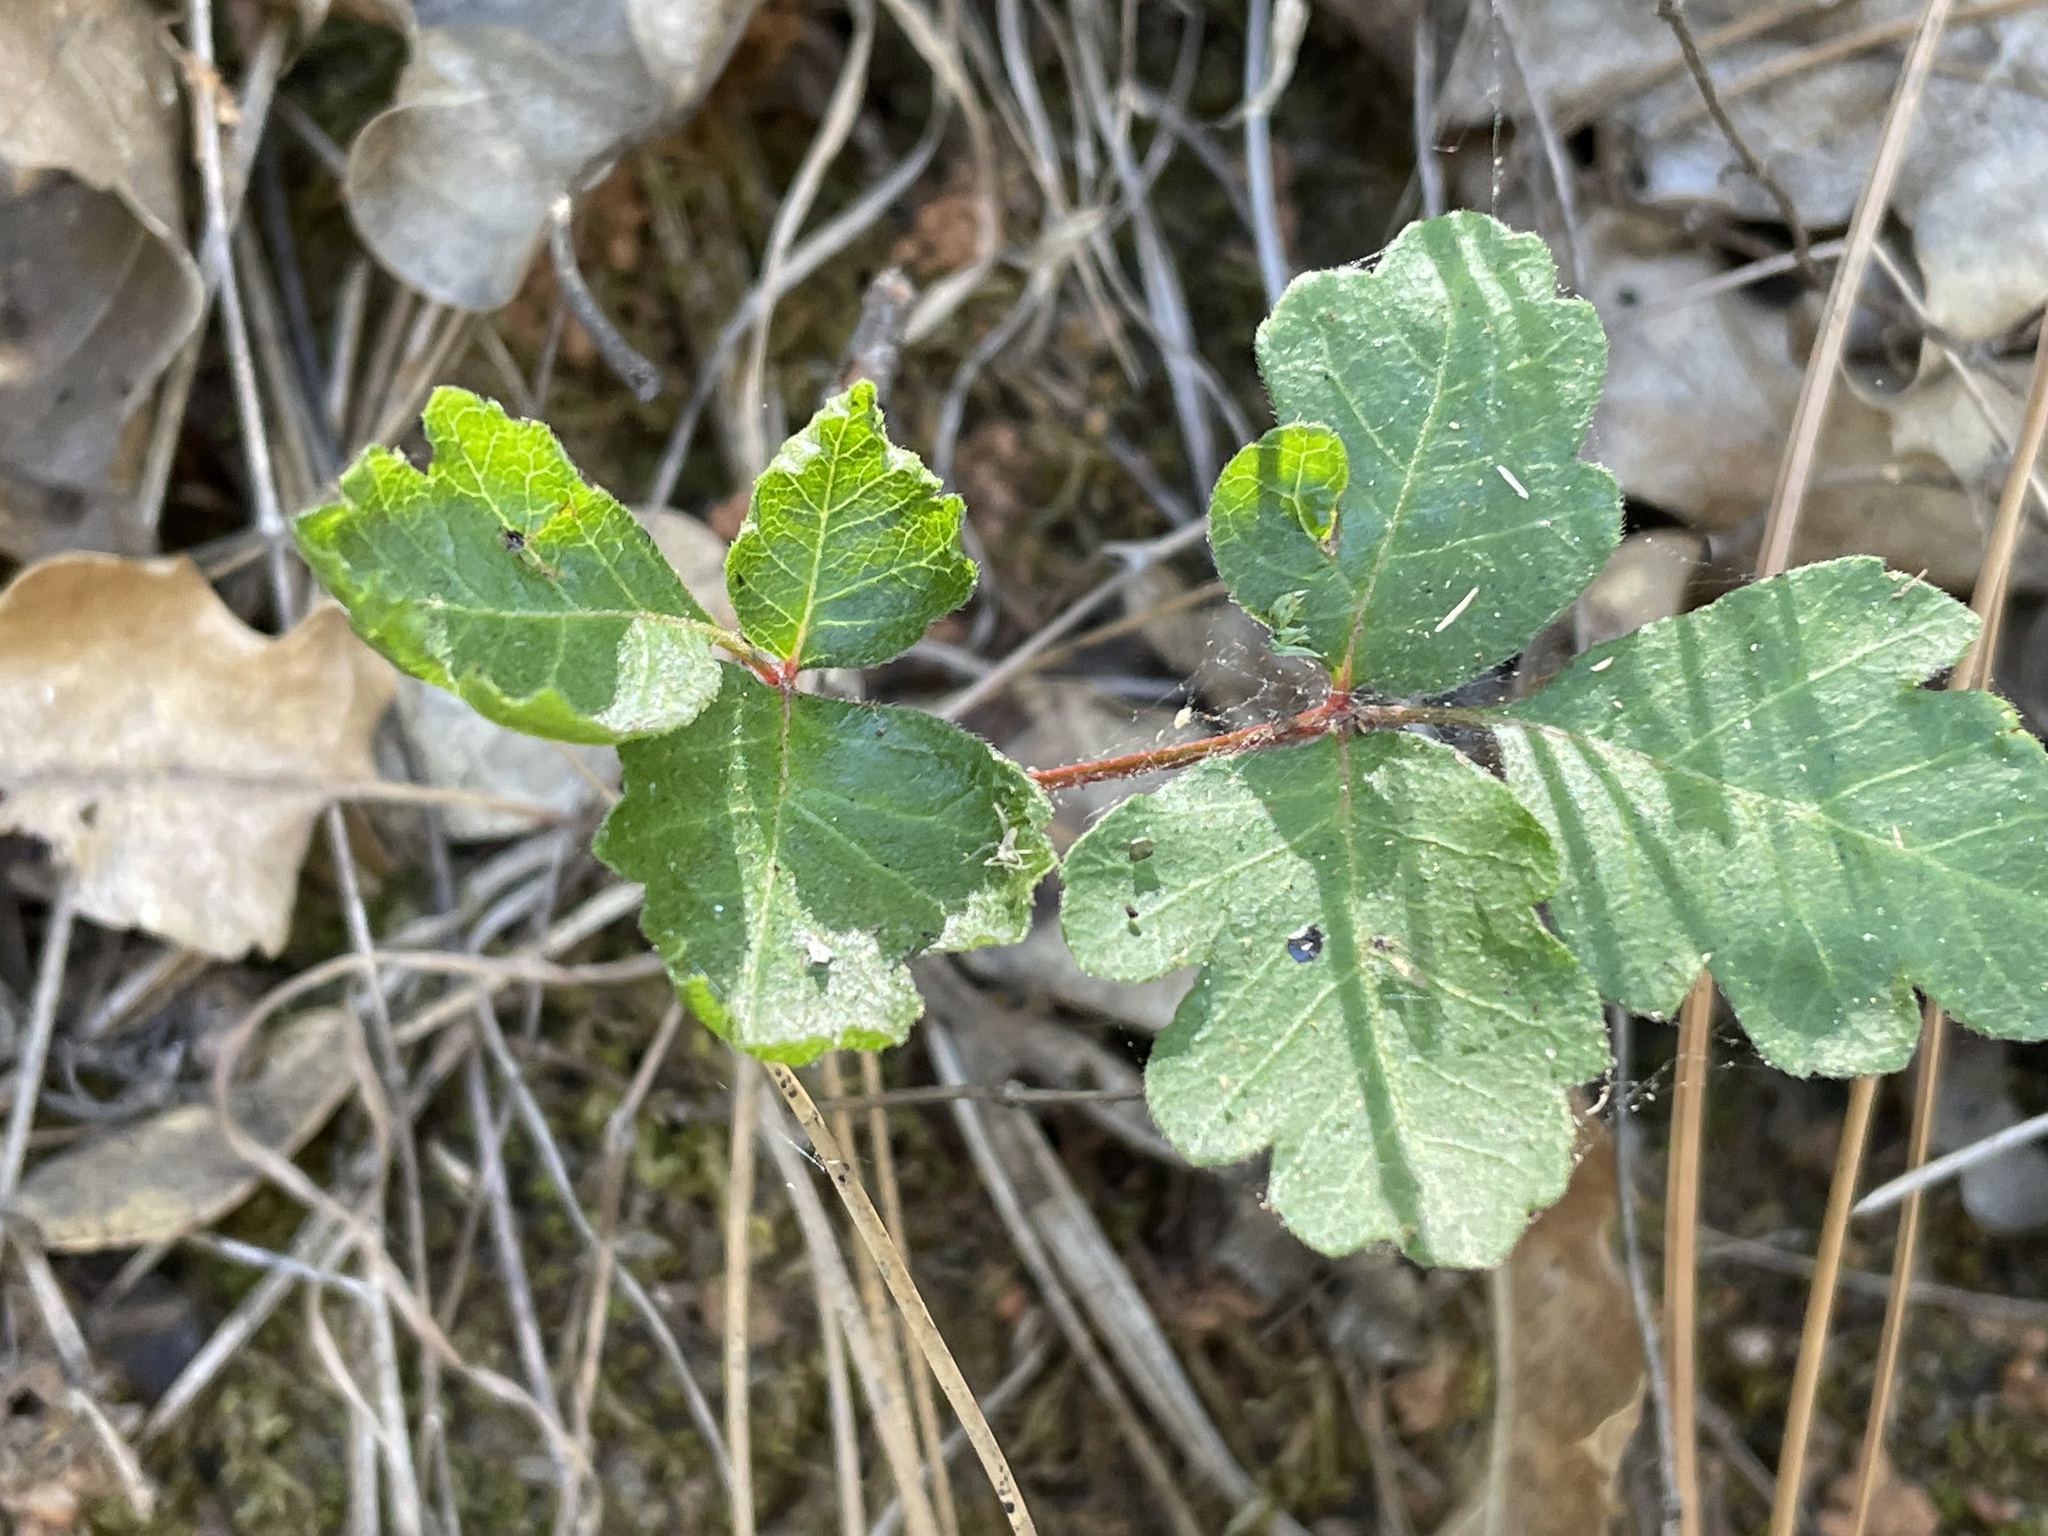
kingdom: Plantae
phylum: Tracheophyta
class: Magnoliopsida
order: Sapindales
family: Anacardiaceae
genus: Toxicodendron
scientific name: Toxicodendron diversilobum
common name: Pacific poison-oak
